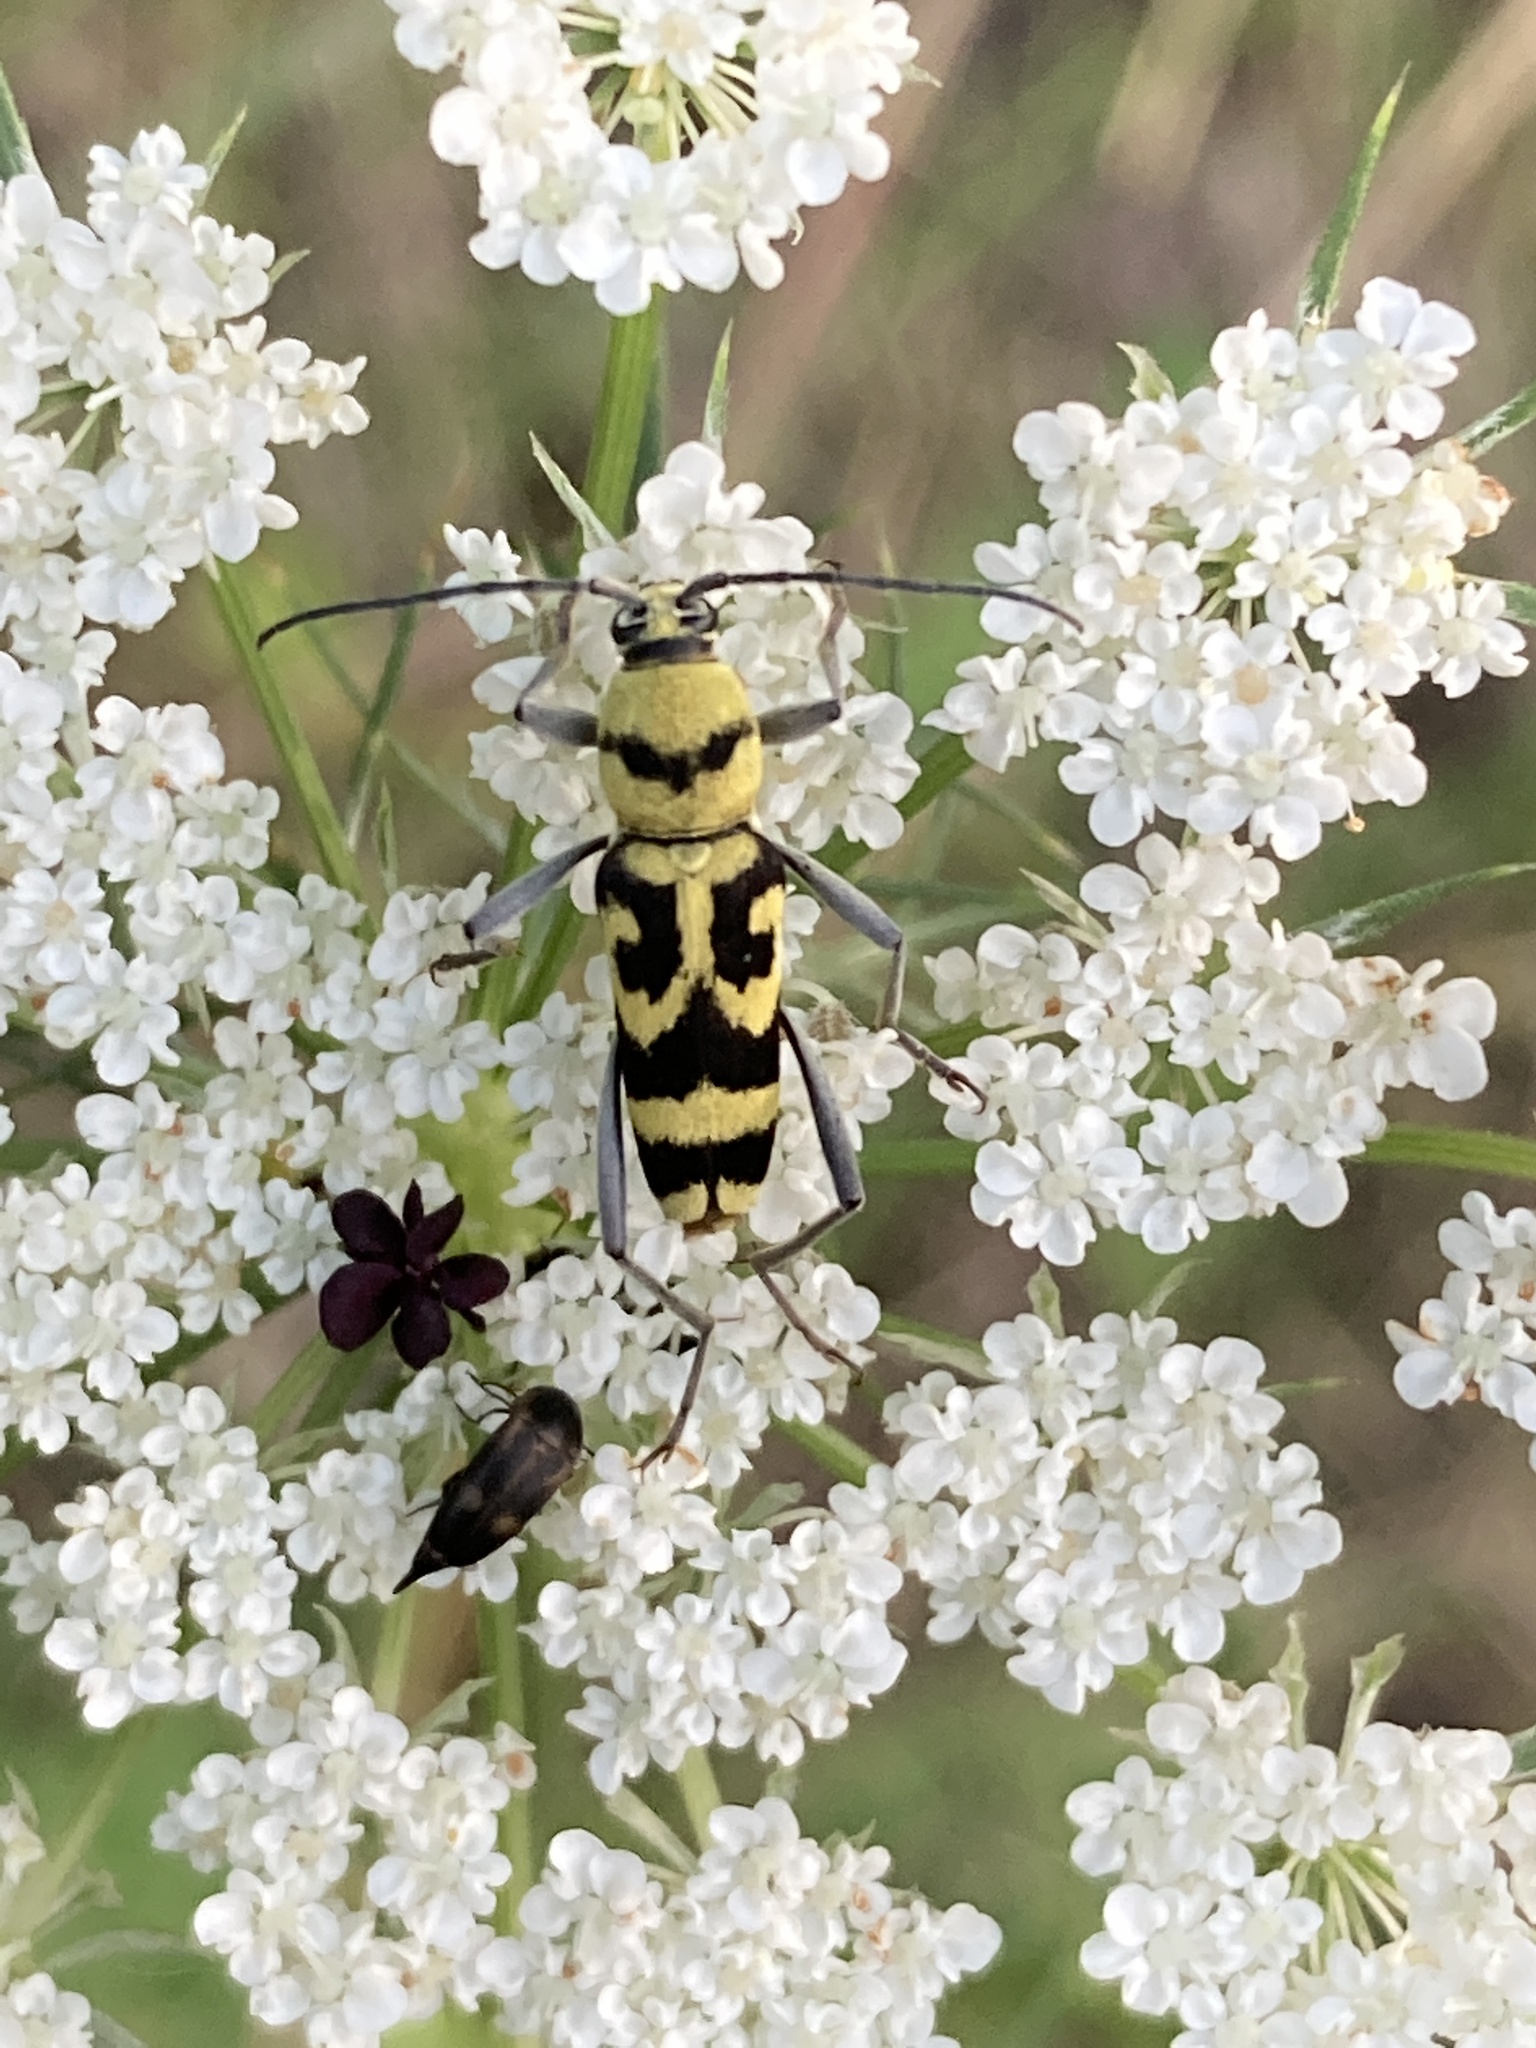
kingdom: Animalia
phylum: Arthropoda
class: Insecta
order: Coleoptera
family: Cerambycidae
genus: Chlorophorus
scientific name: Chlorophorus varius
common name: Grape wood borer
